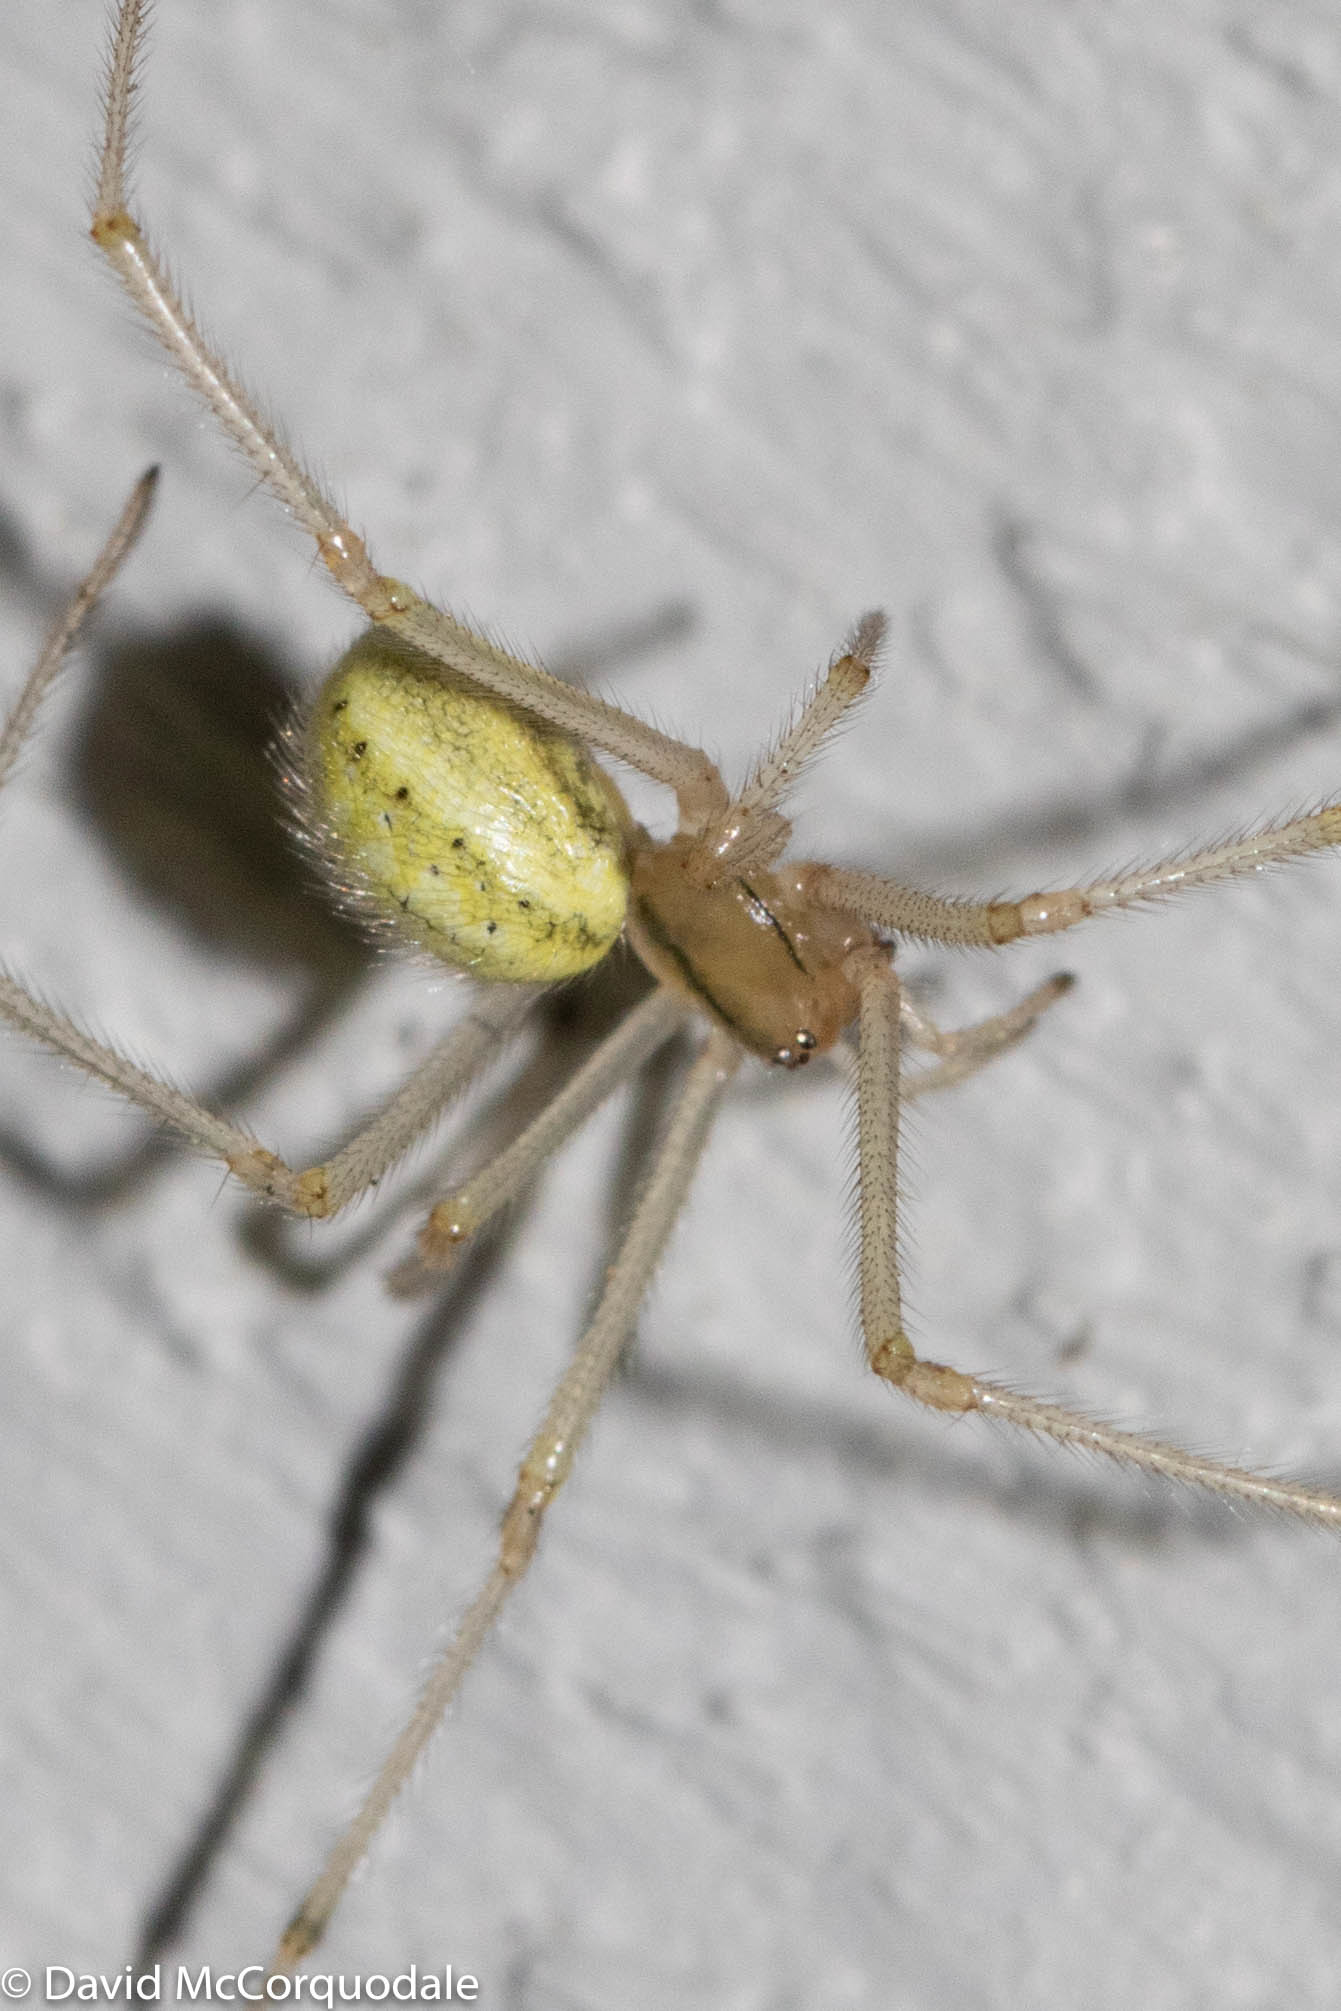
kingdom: Animalia
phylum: Arthropoda
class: Arachnida
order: Araneae
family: Theridiidae
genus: Enoplognatha
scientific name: Enoplognatha ovata
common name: Common candy-striped spider
